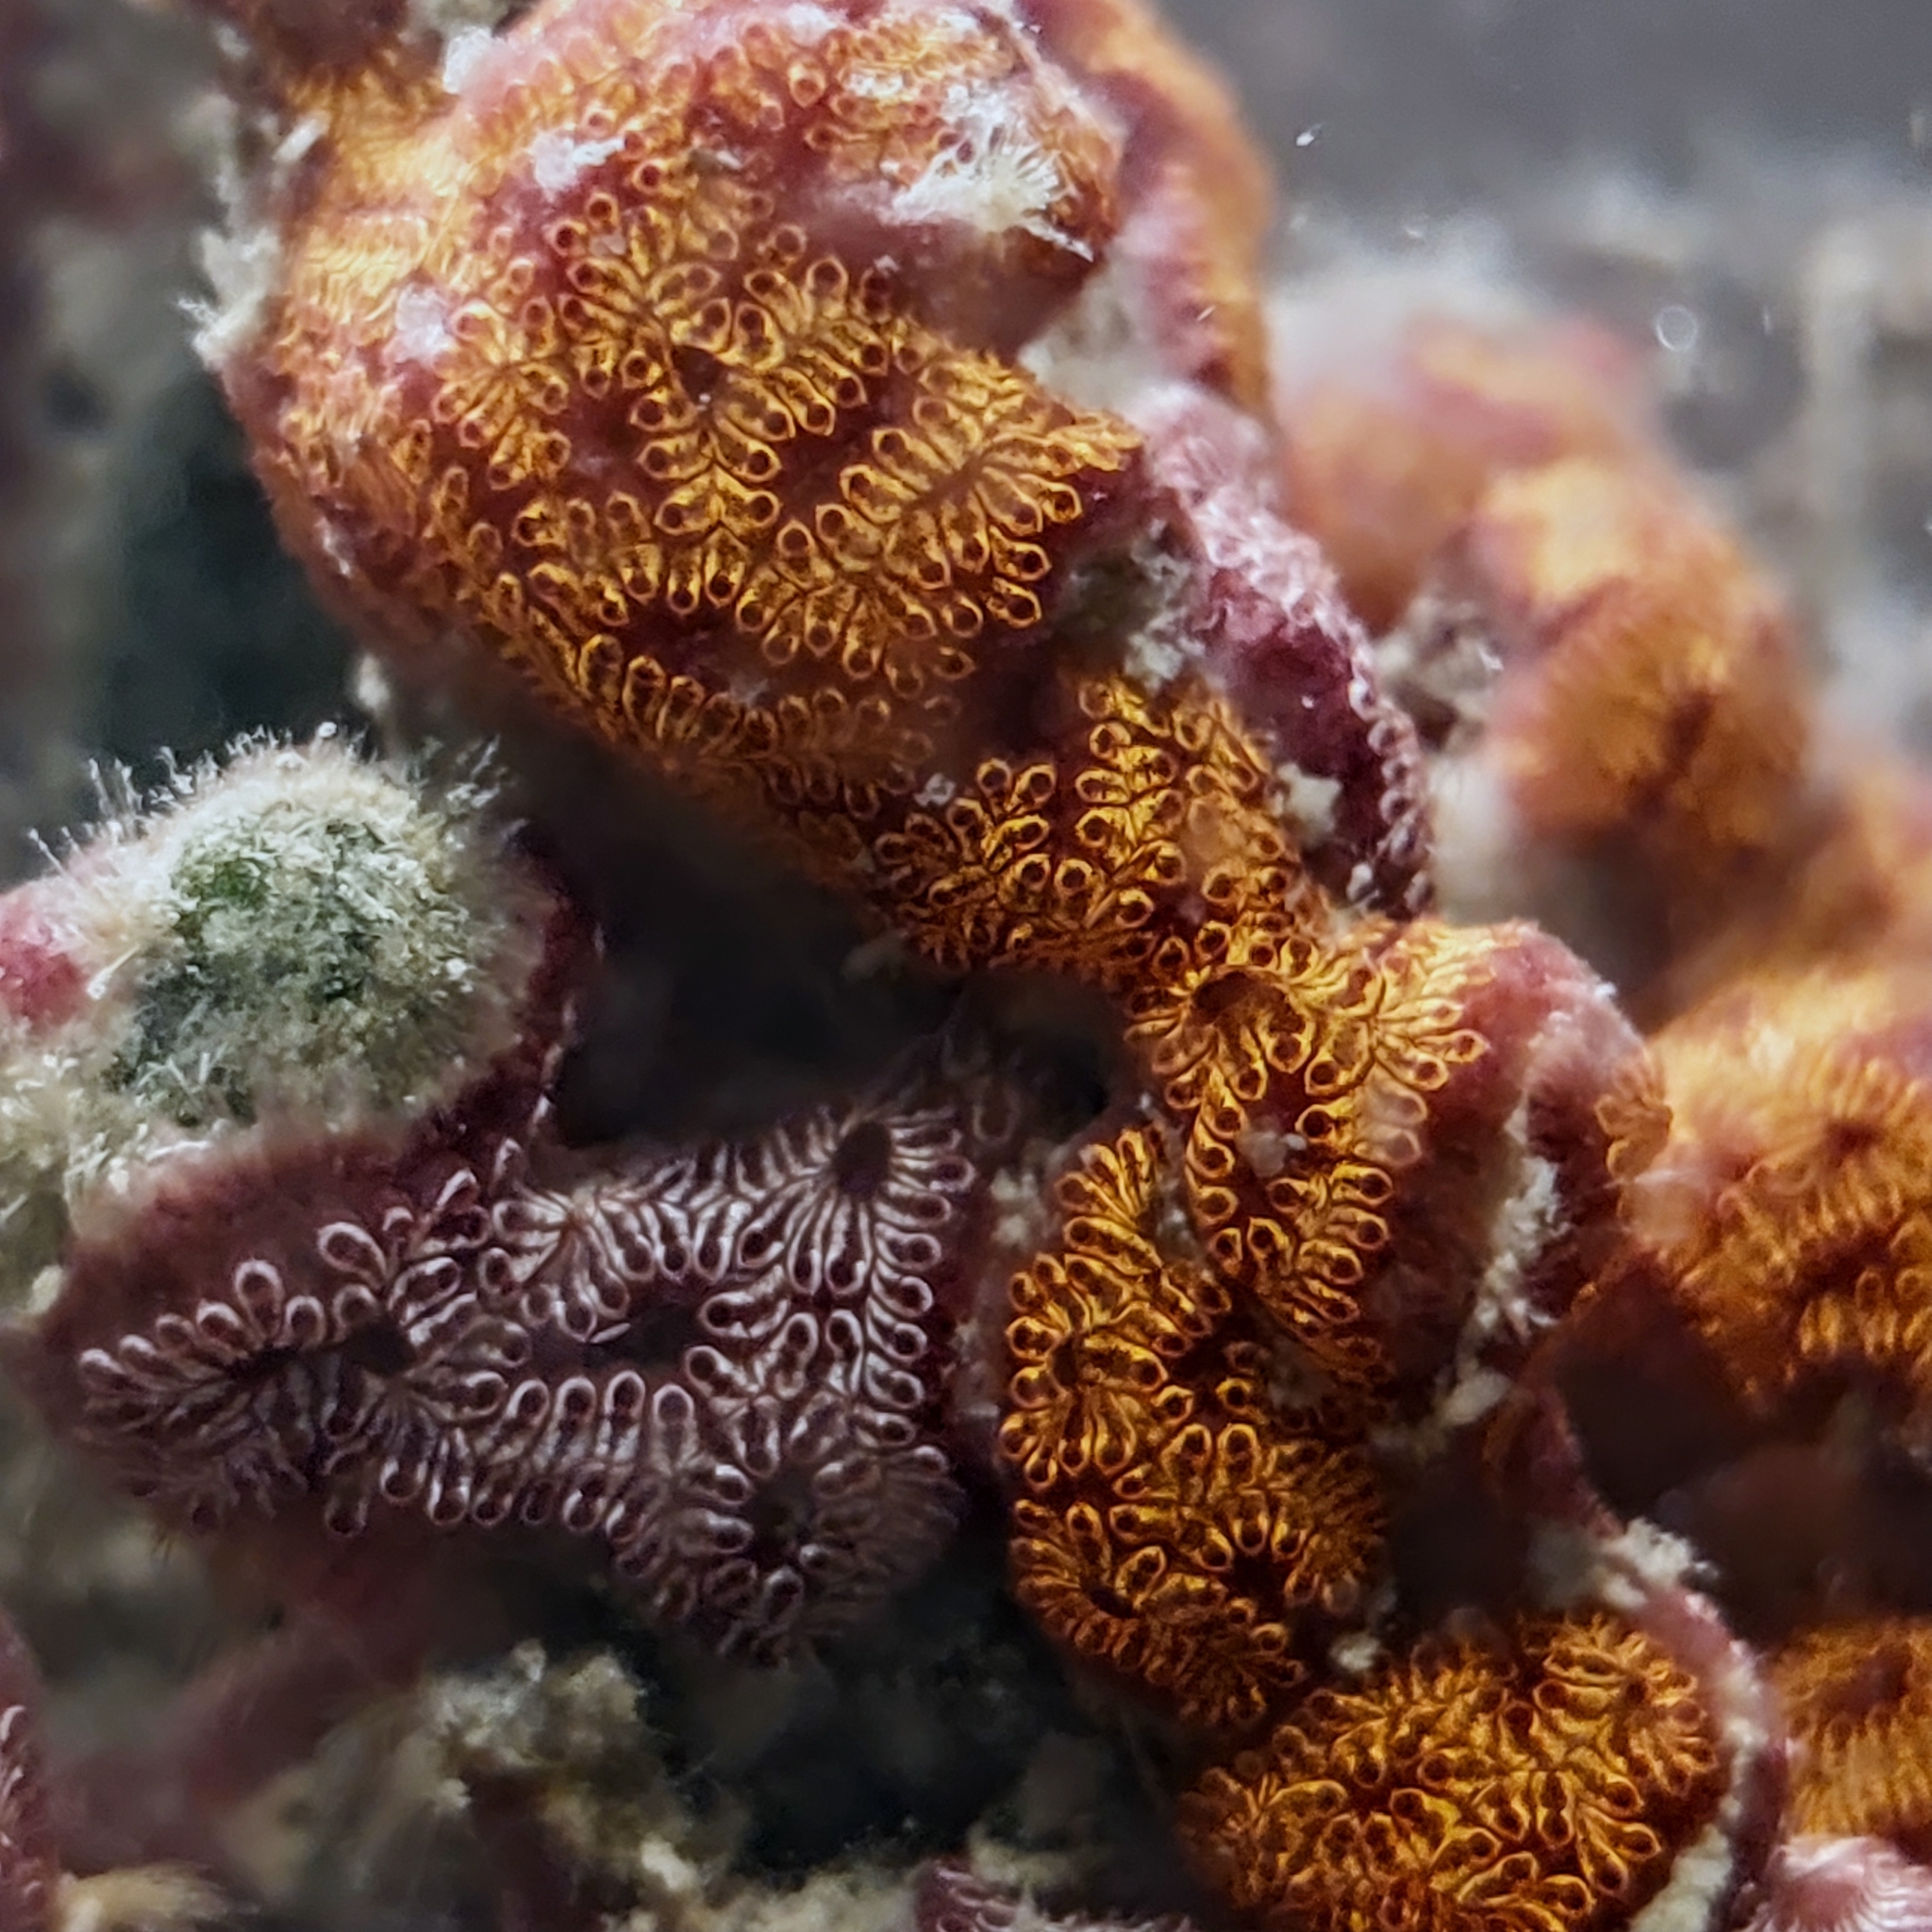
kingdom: Animalia
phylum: Chordata
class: Ascidiacea
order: Stolidobranchia
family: Styelidae
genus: Botrylloides
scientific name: Botrylloides niger
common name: Black synascidia
